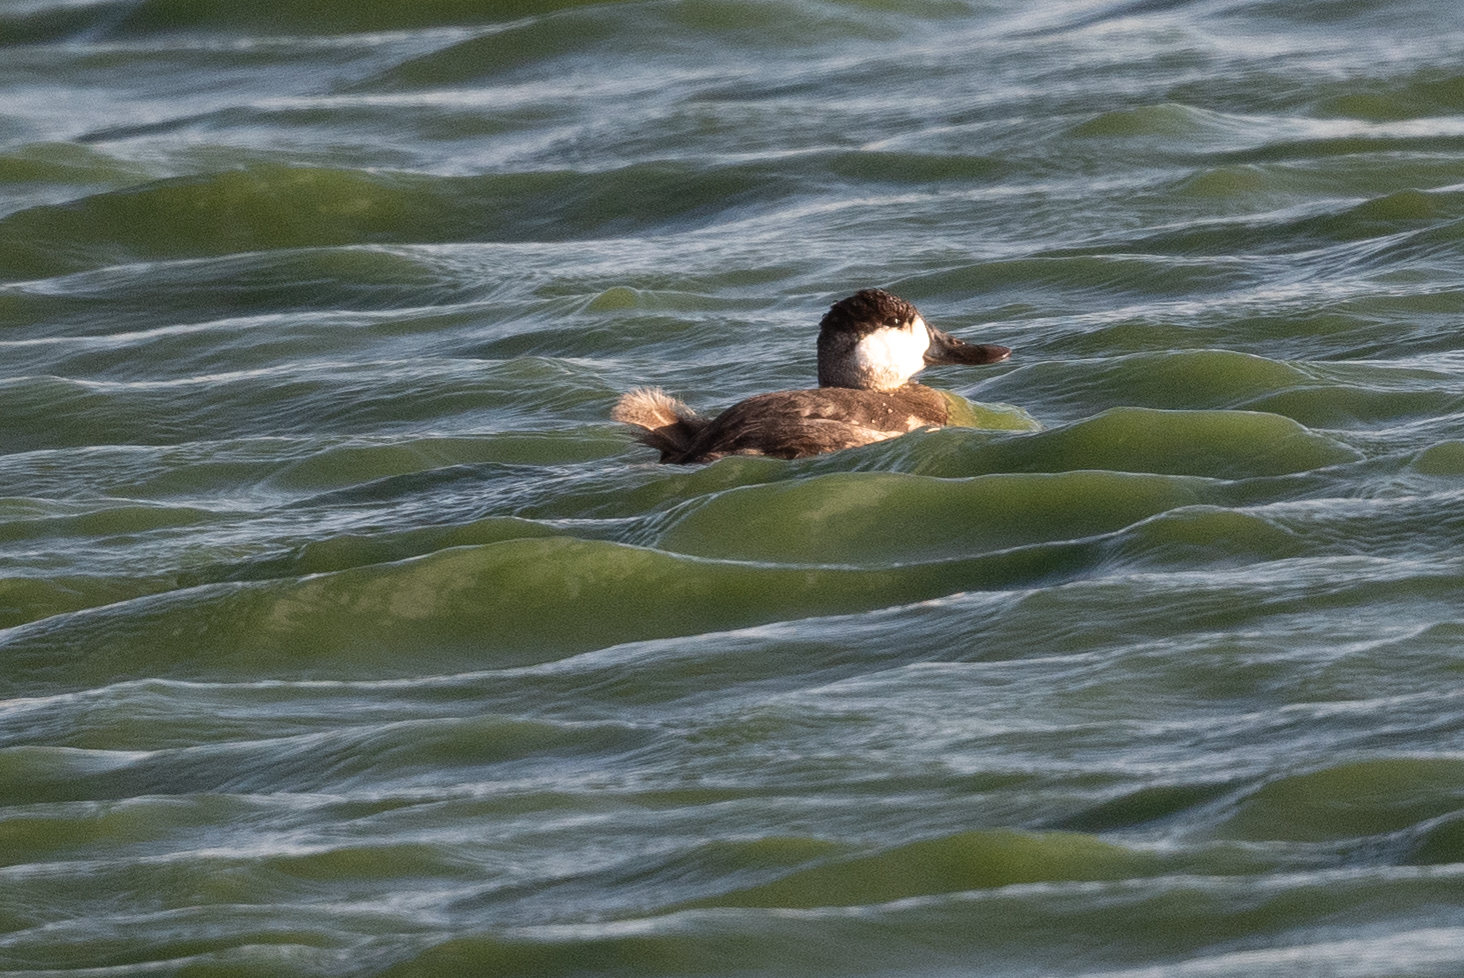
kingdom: Animalia
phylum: Chordata
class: Aves
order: Anseriformes
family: Anatidae
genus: Oxyura
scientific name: Oxyura jamaicensis
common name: Ruddy duck
